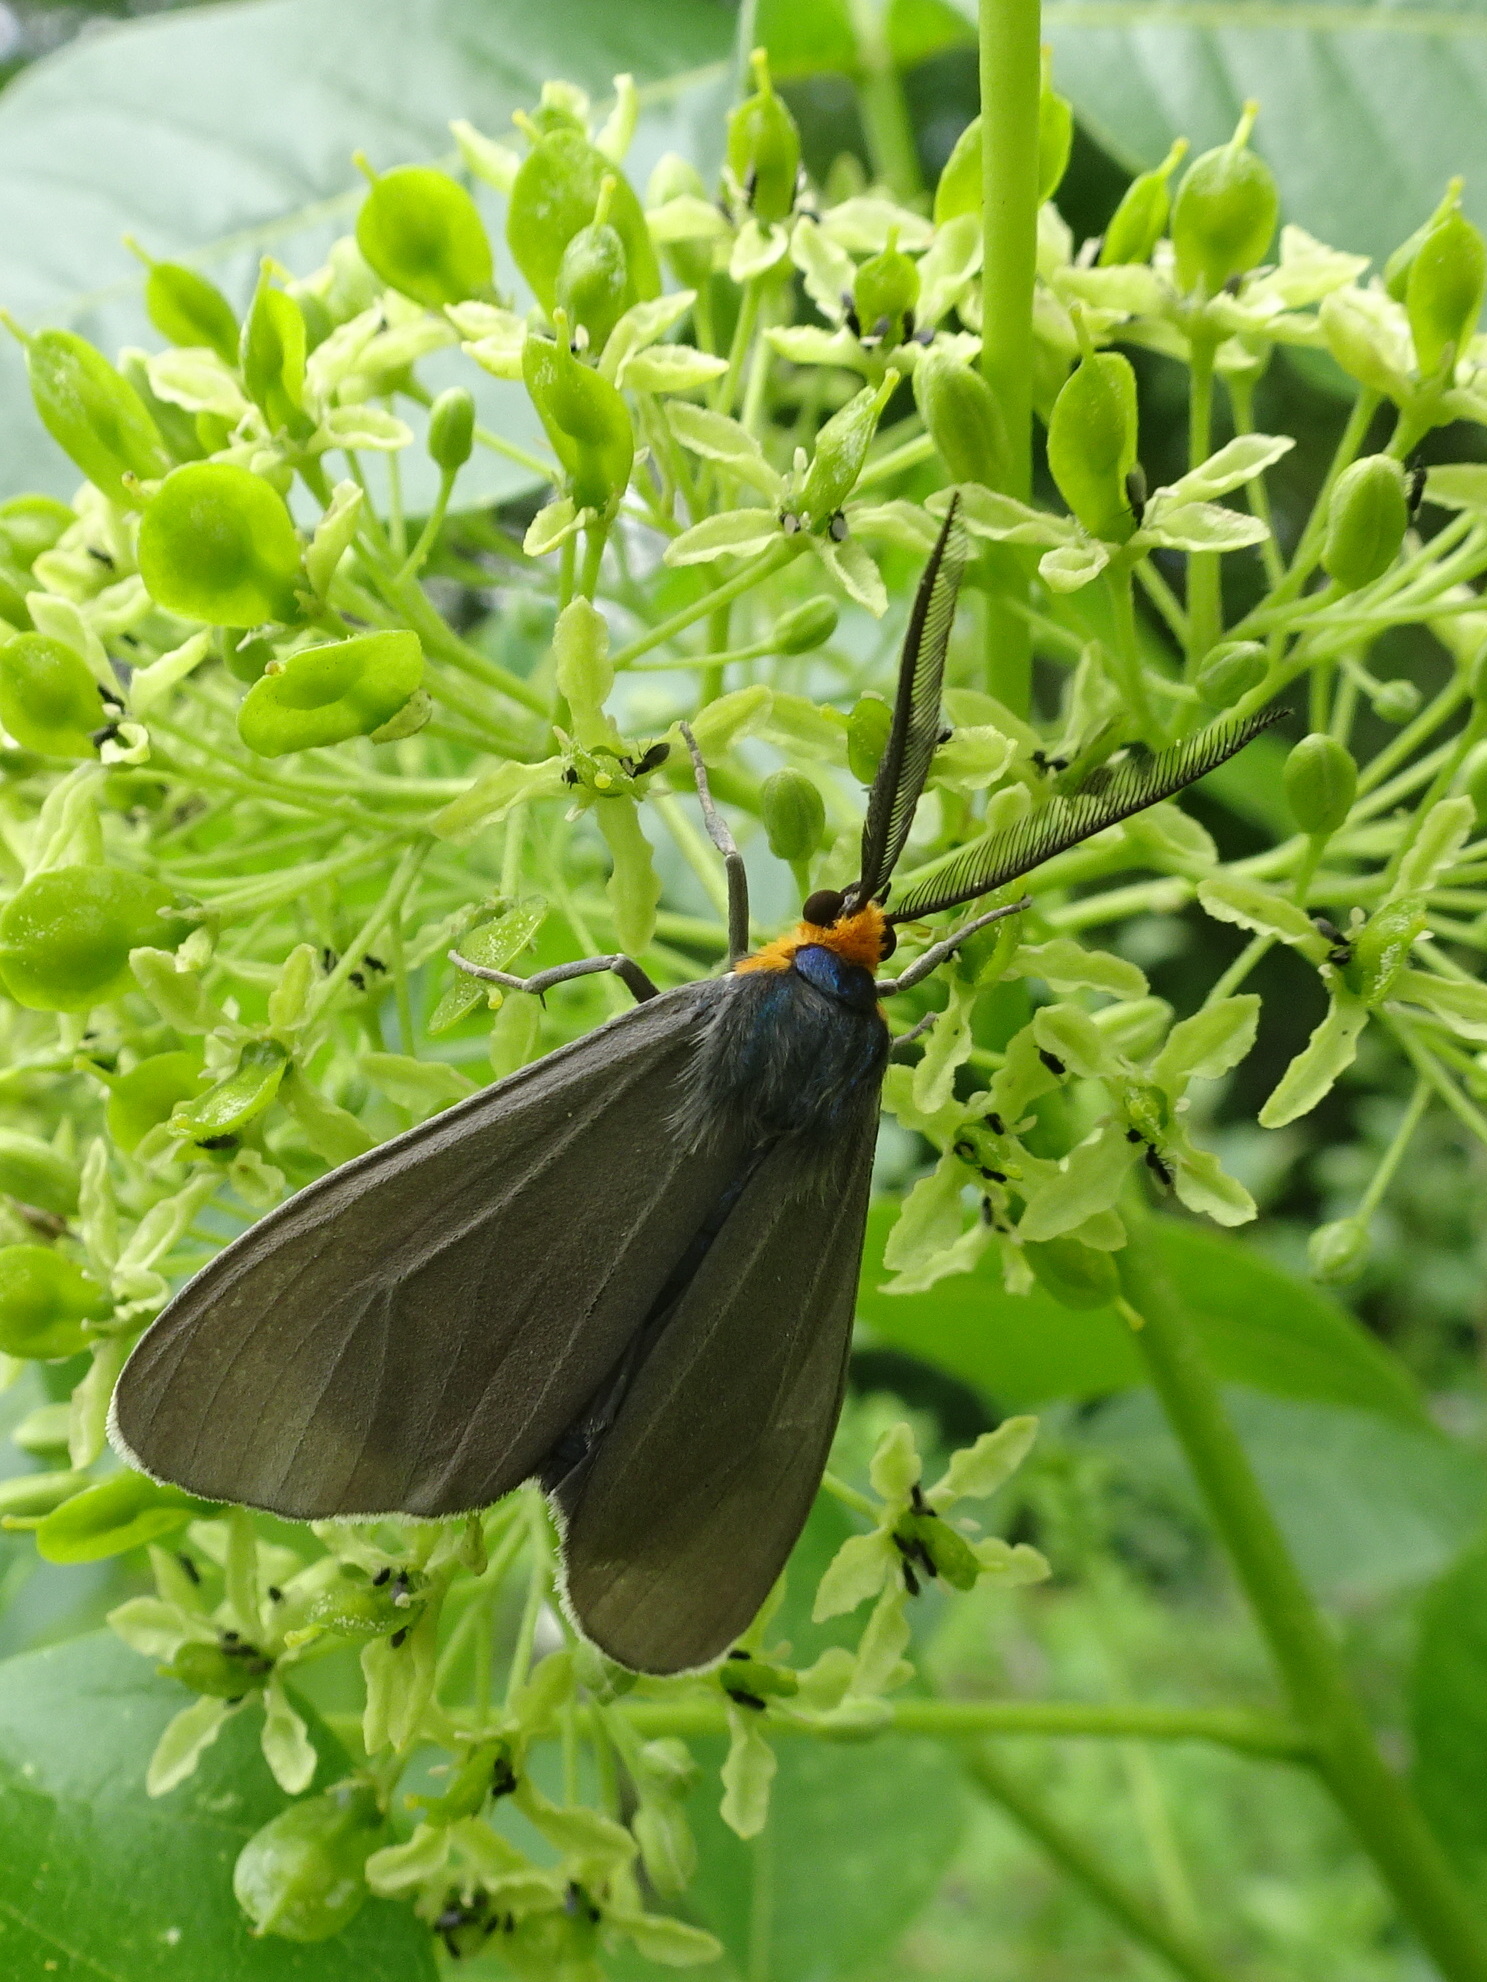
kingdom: Animalia
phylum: Arthropoda
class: Insecta
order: Lepidoptera
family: Erebidae
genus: Ctenucha
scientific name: Ctenucha virginica
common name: Virginia ctenucha moth
